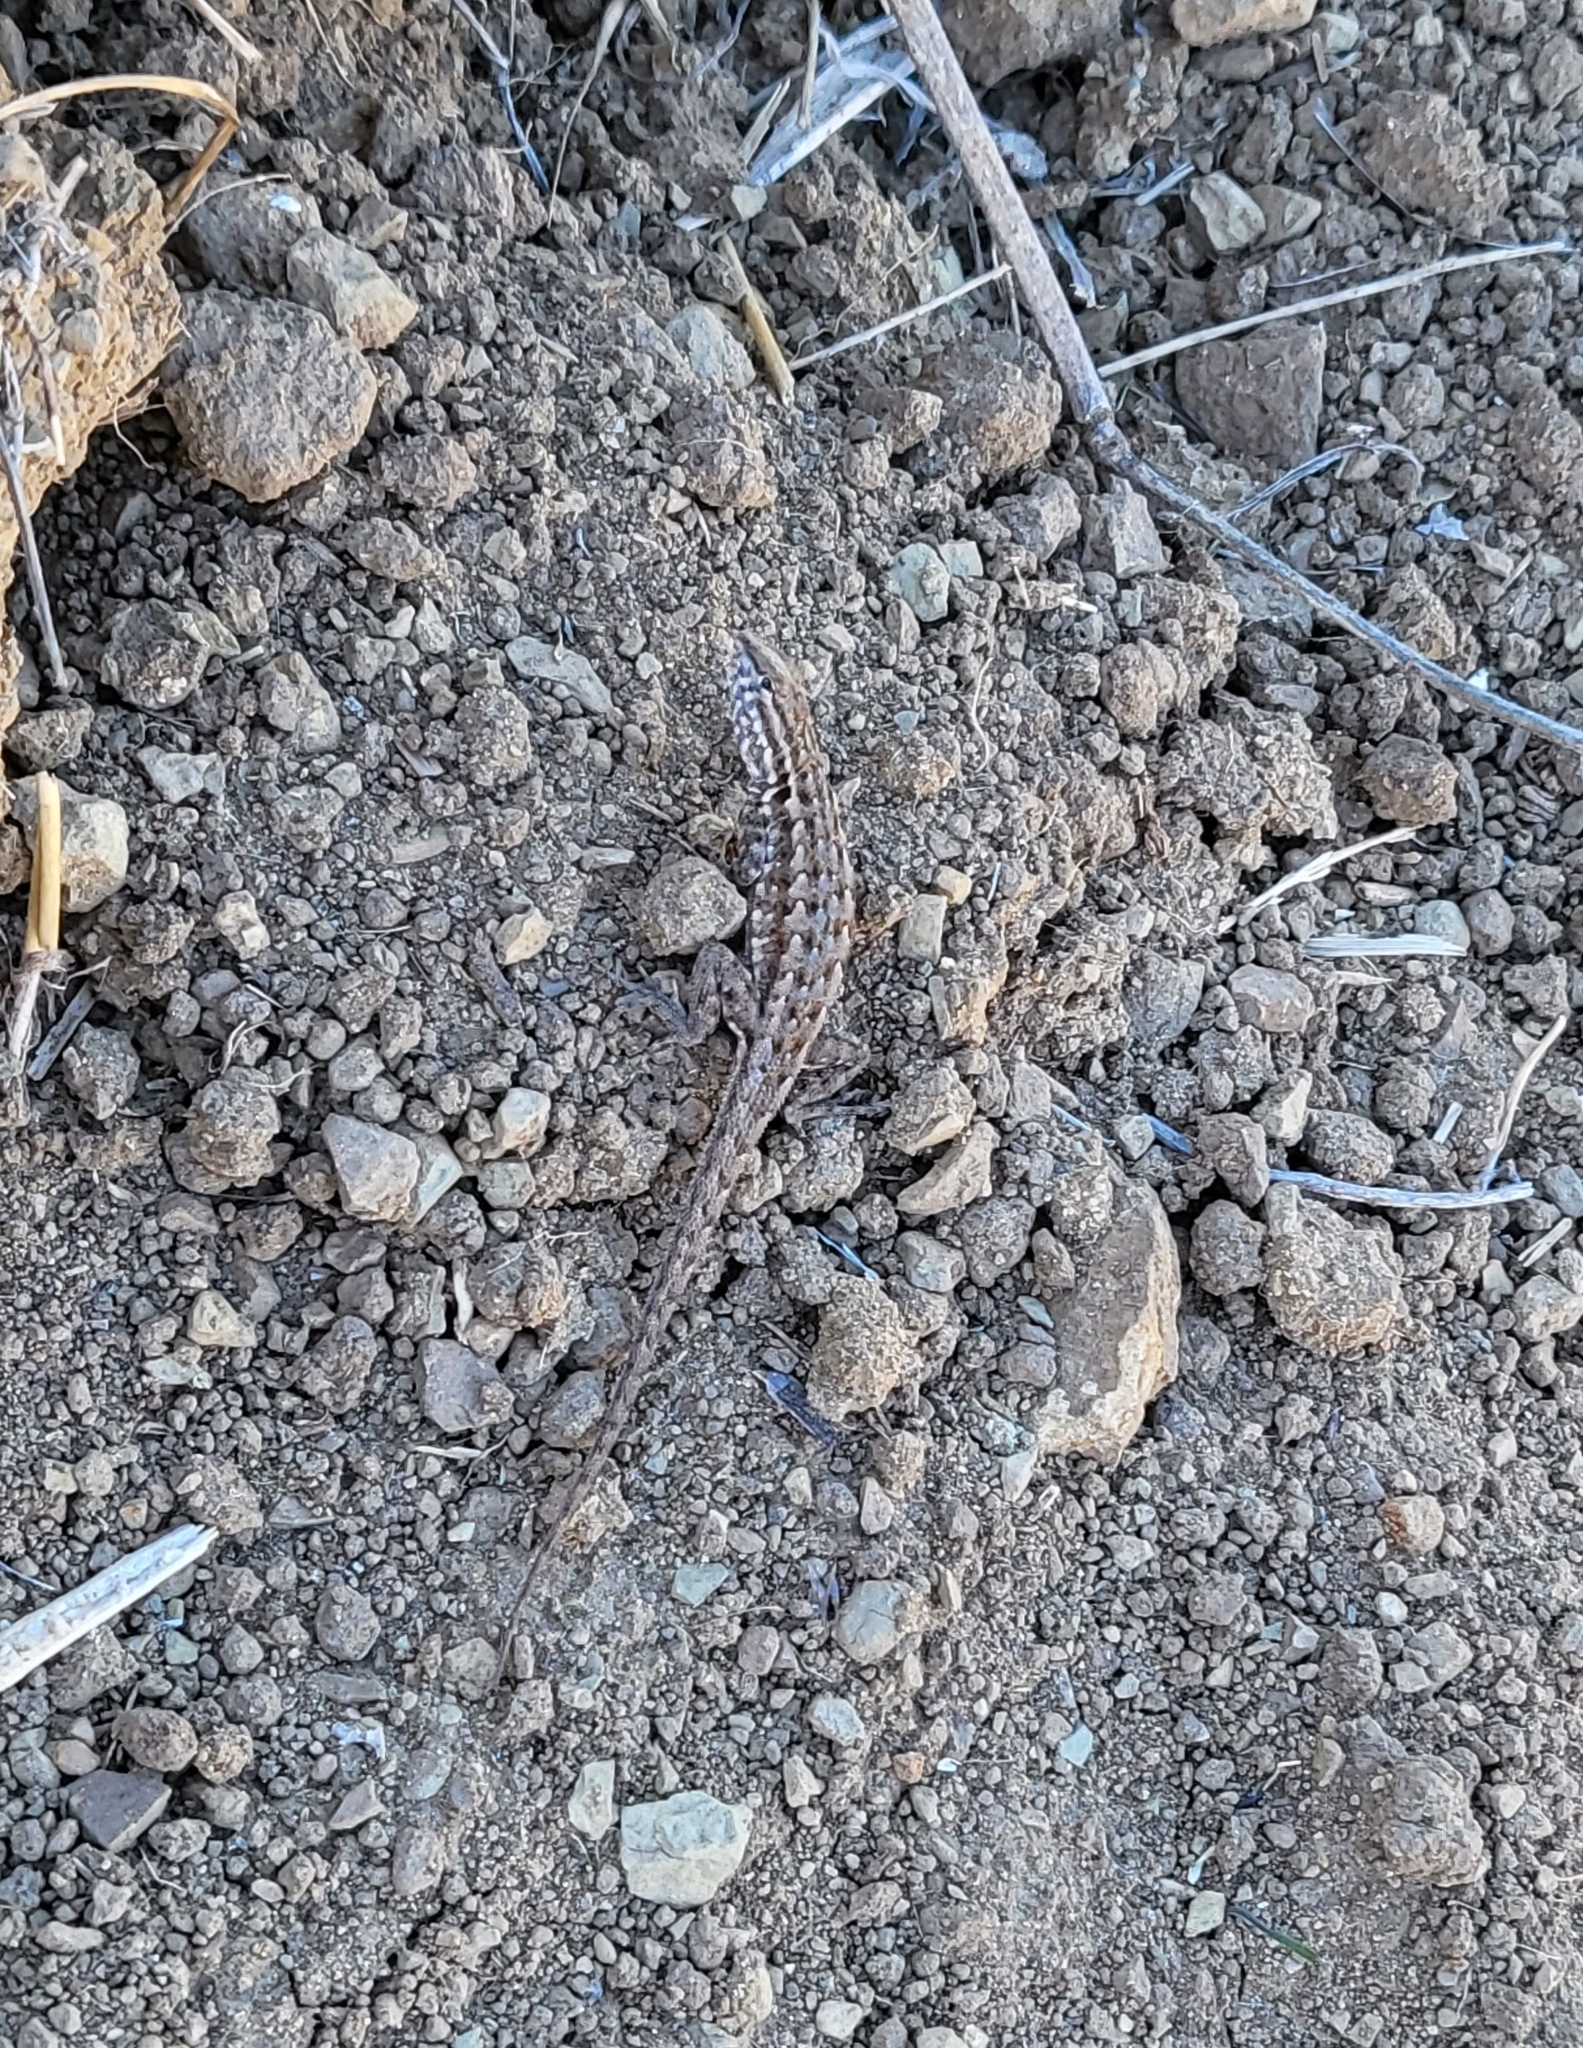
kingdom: Animalia
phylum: Chordata
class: Squamata
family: Phrynosomatidae
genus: Uta
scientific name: Uta stansburiana
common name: Side-blotched lizard
